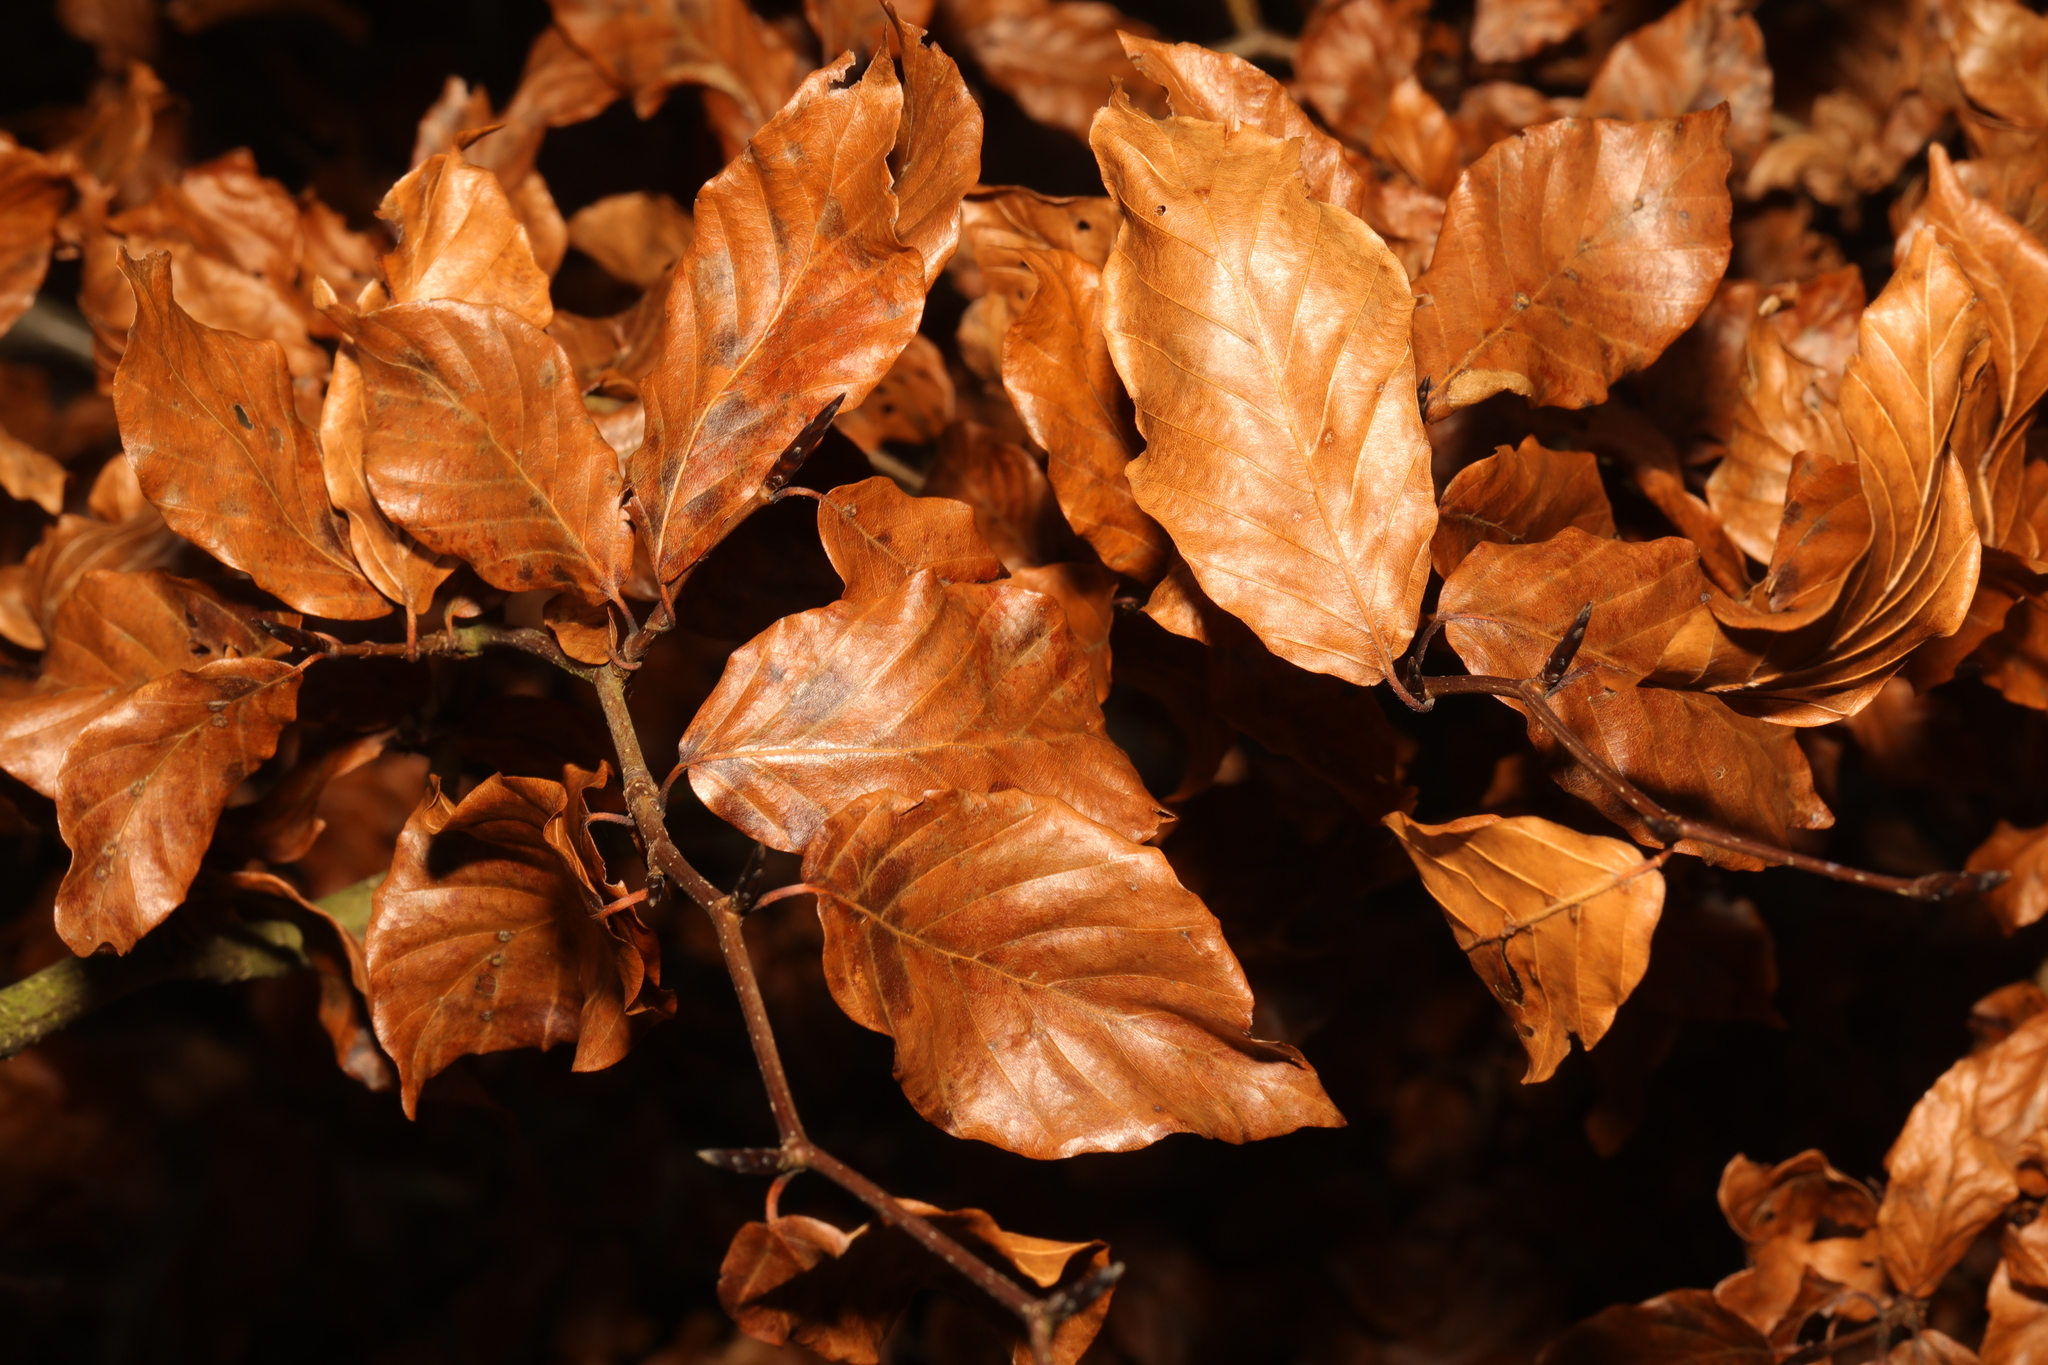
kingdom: Plantae
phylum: Tracheophyta
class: Magnoliopsida
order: Fagales
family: Fagaceae
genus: Fagus
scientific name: Fagus sylvatica
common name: Beech
